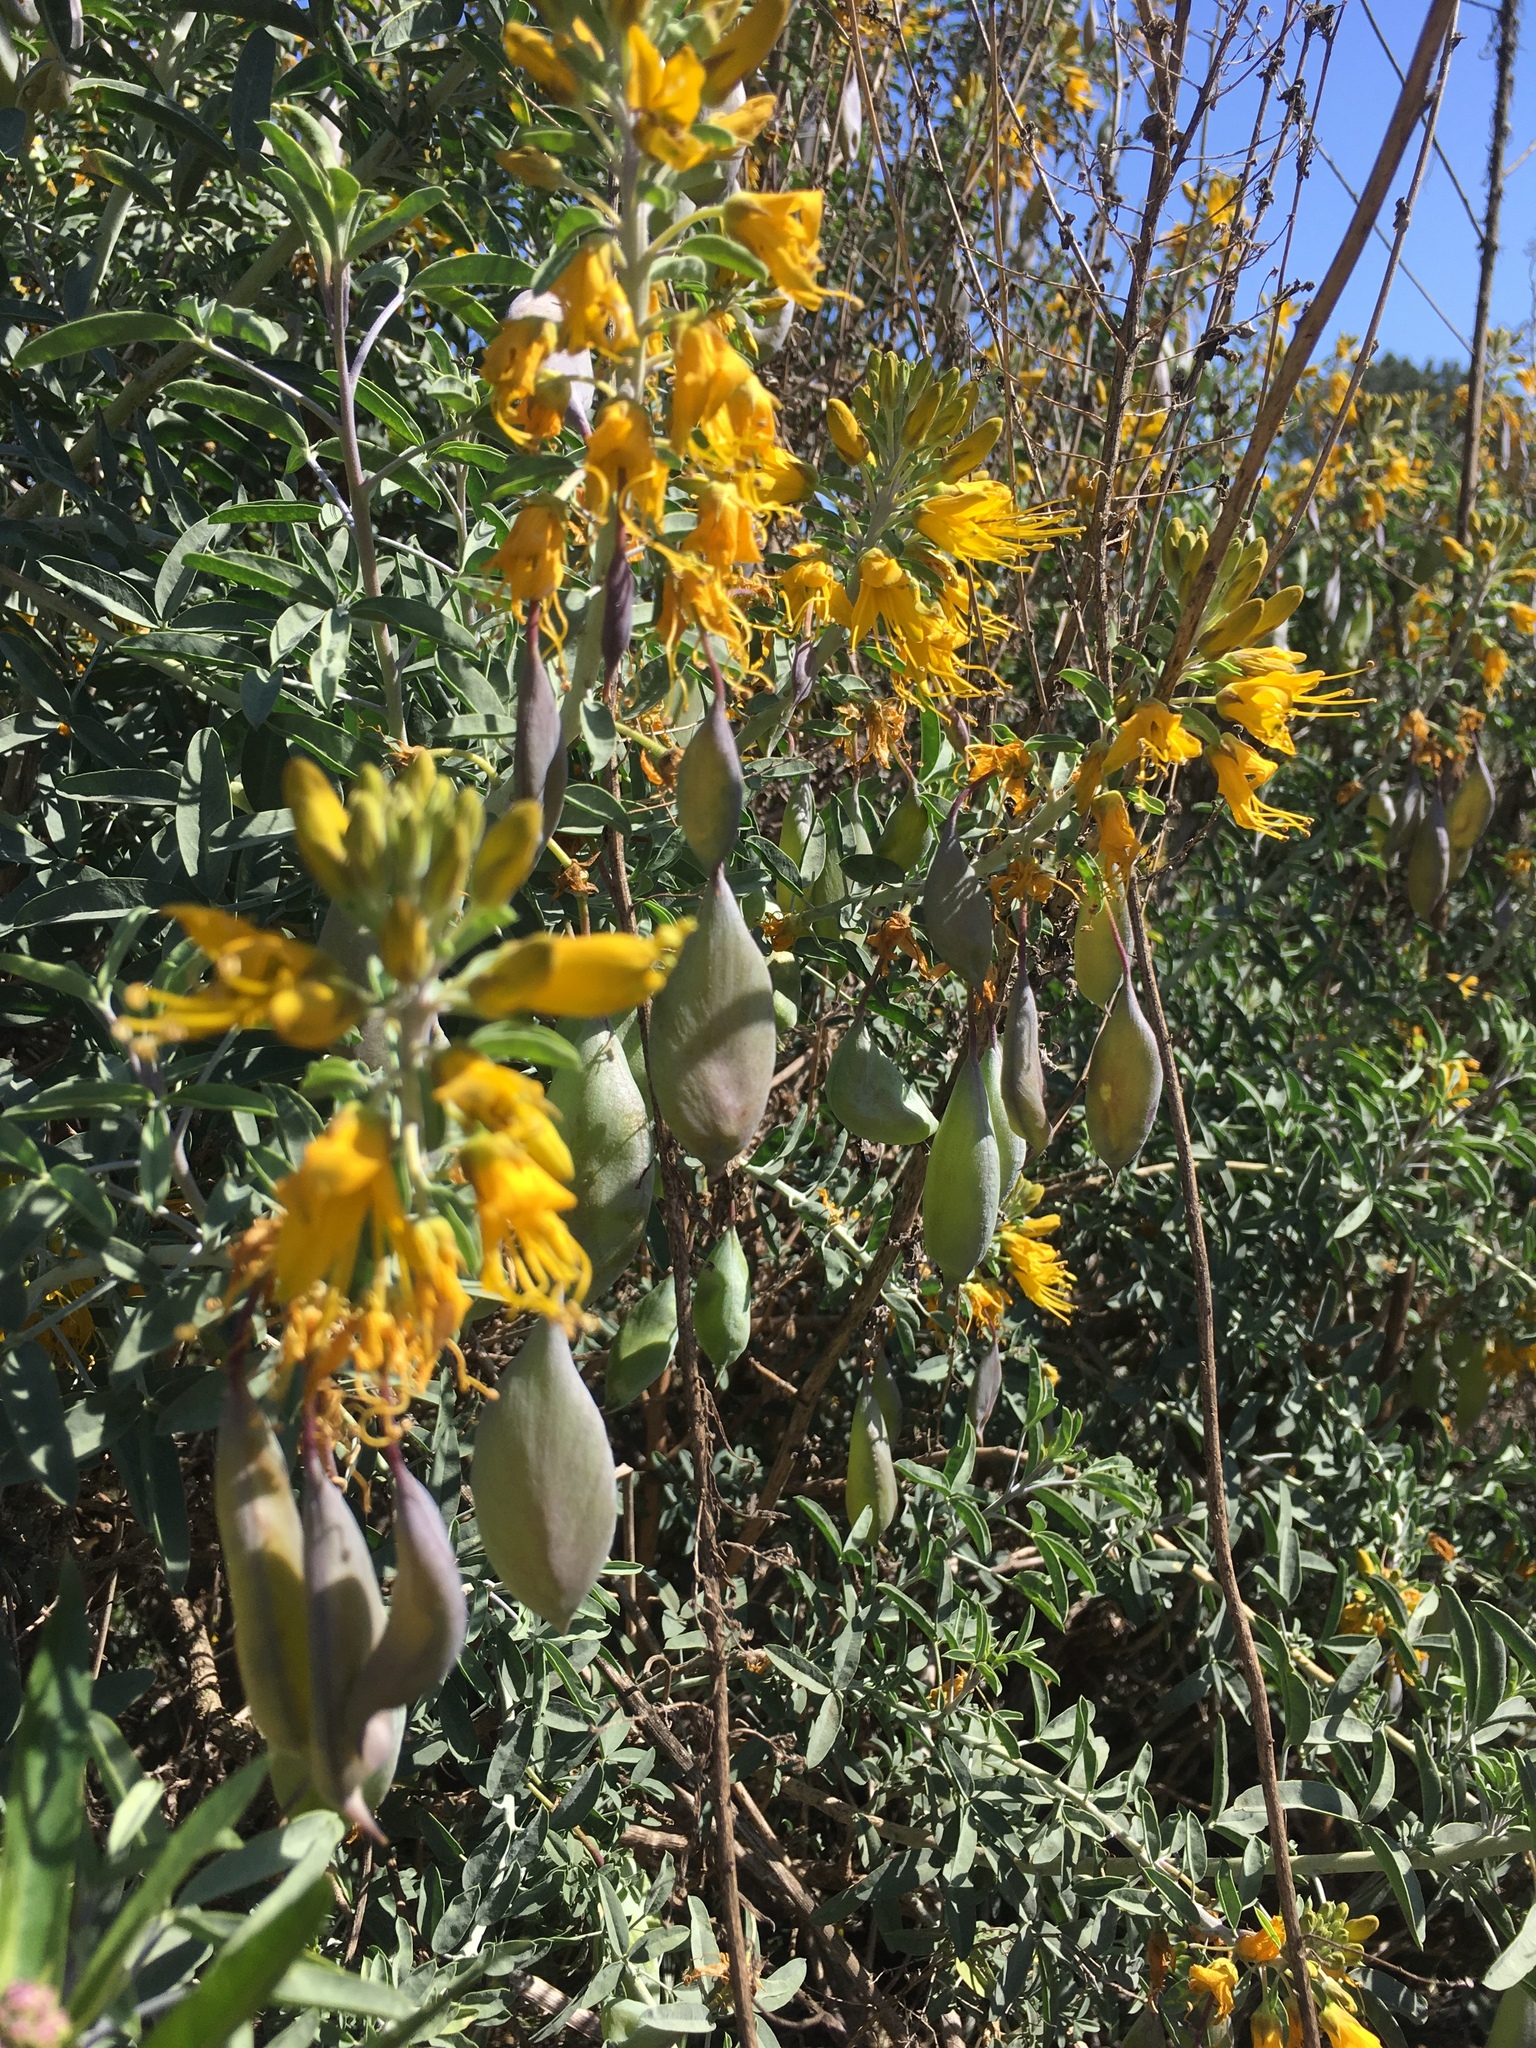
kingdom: Plantae
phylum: Tracheophyta
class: Magnoliopsida
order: Brassicales
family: Cleomaceae
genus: Cleomella
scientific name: Cleomella arborea
